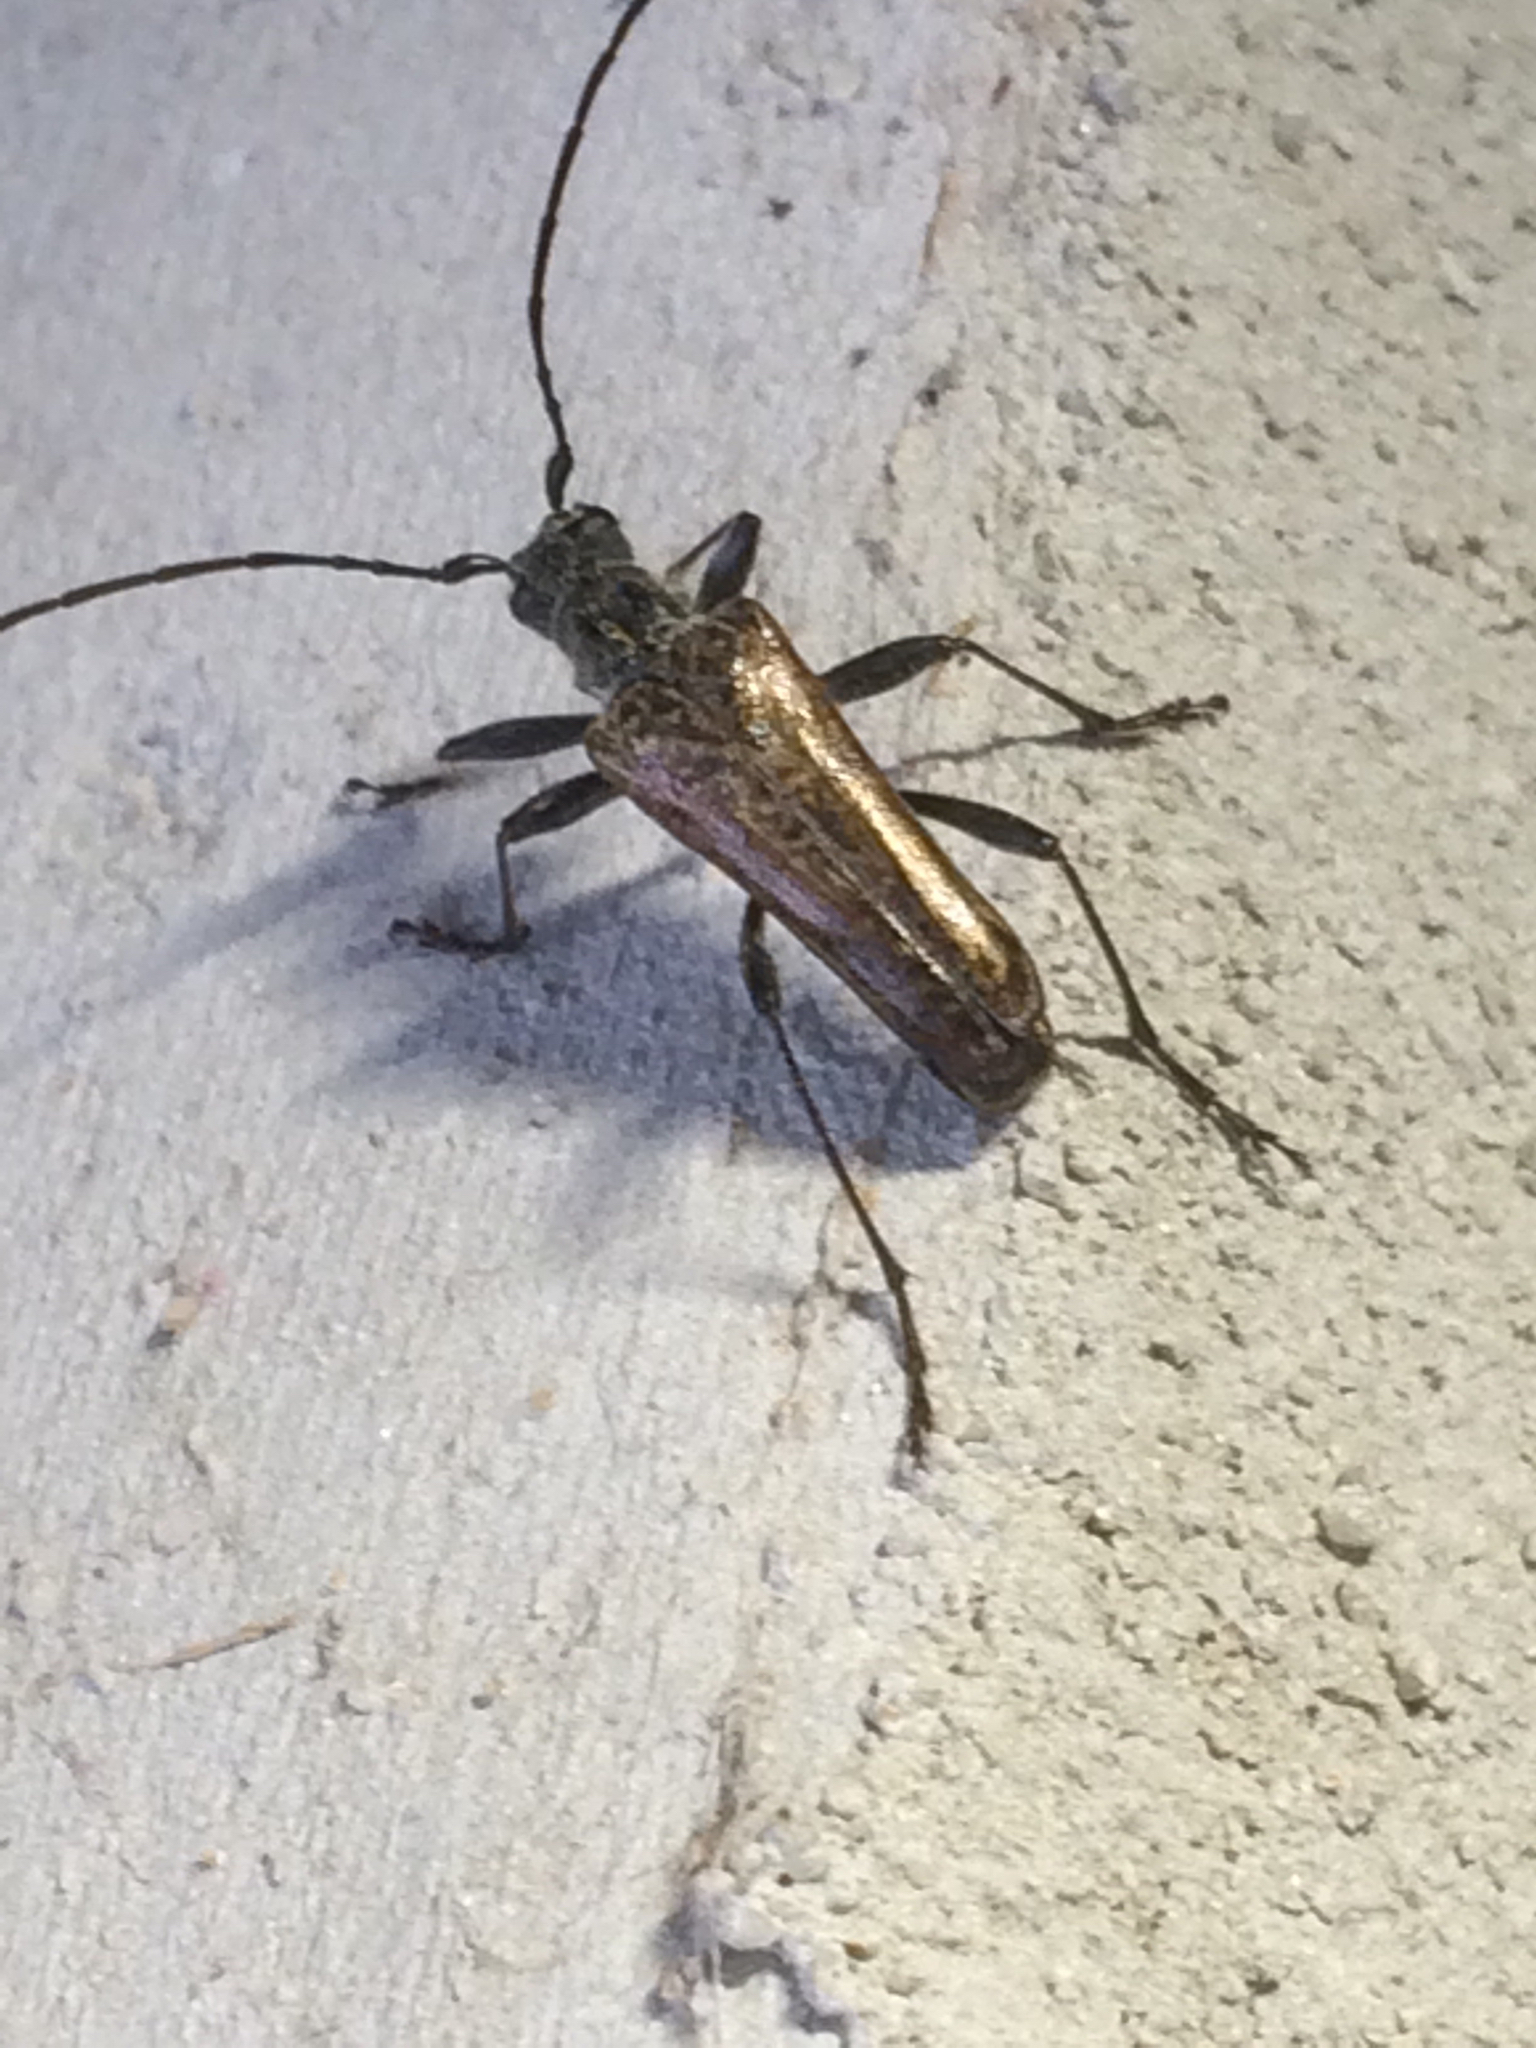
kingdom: Animalia
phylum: Arthropoda
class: Insecta
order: Coleoptera
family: Cerambycidae
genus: Anthophylax
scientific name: Anthophylax attenuatus
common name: Mottled longhorned beetle
